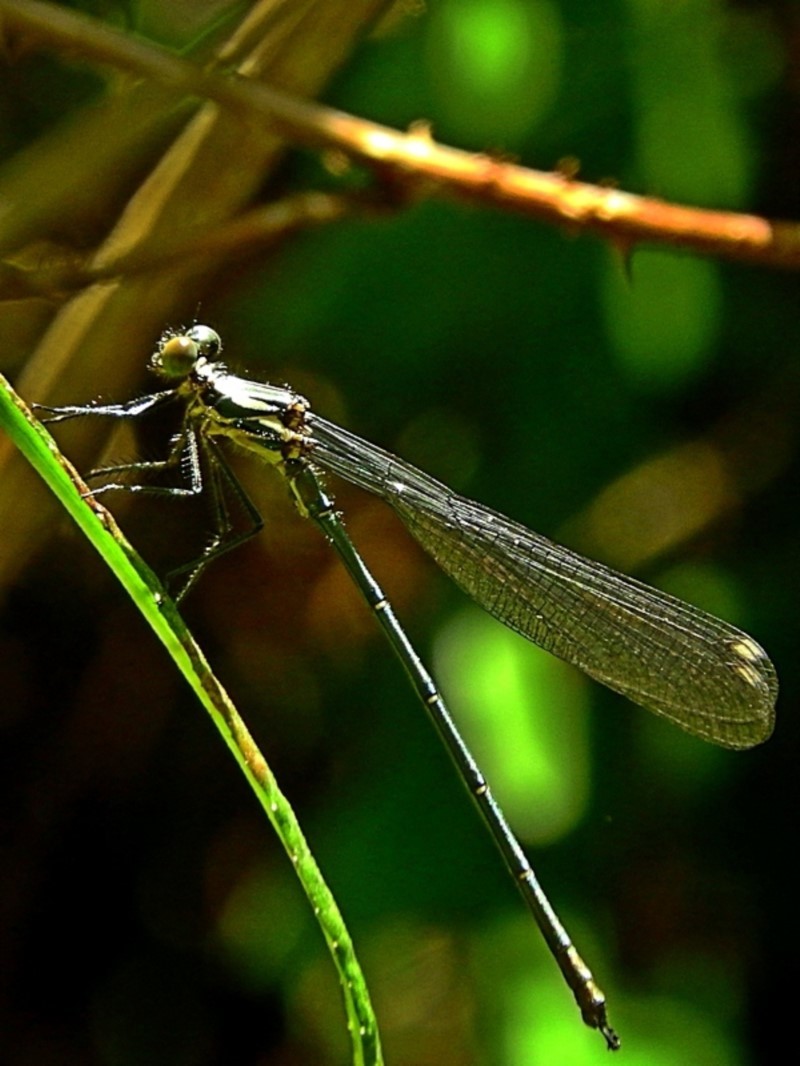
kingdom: Animalia
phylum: Arthropoda
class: Insecta
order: Odonata
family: Argiolestidae
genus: Austroargiolestes
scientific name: Austroargiolestes icteromelas
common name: Common flatwing
